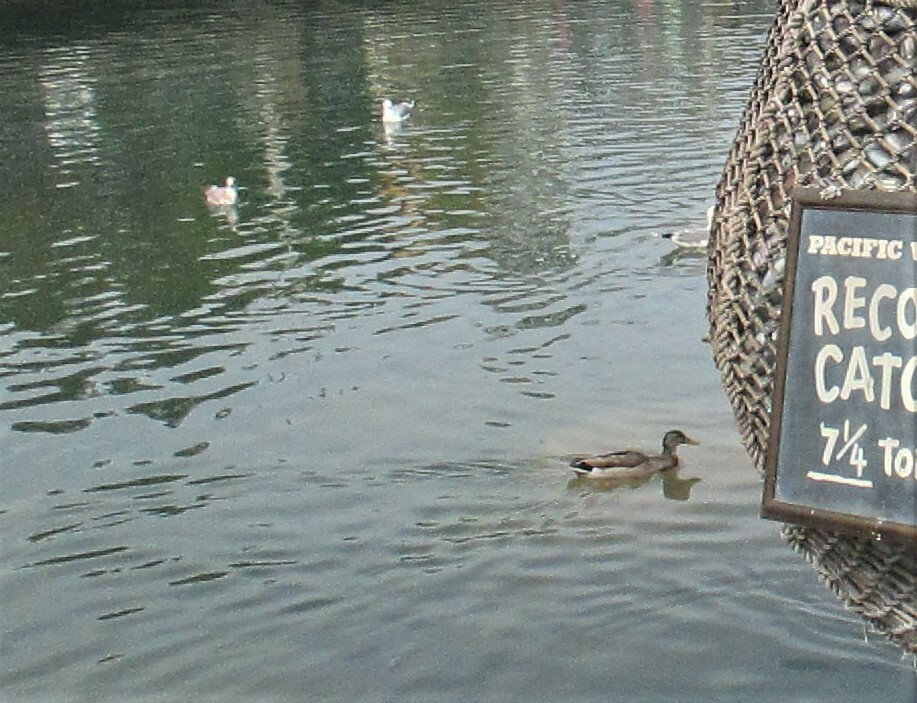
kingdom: Animalia
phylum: Chordata
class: Aves
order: Charadriiformes
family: Laridae
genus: Larus
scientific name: Larus
